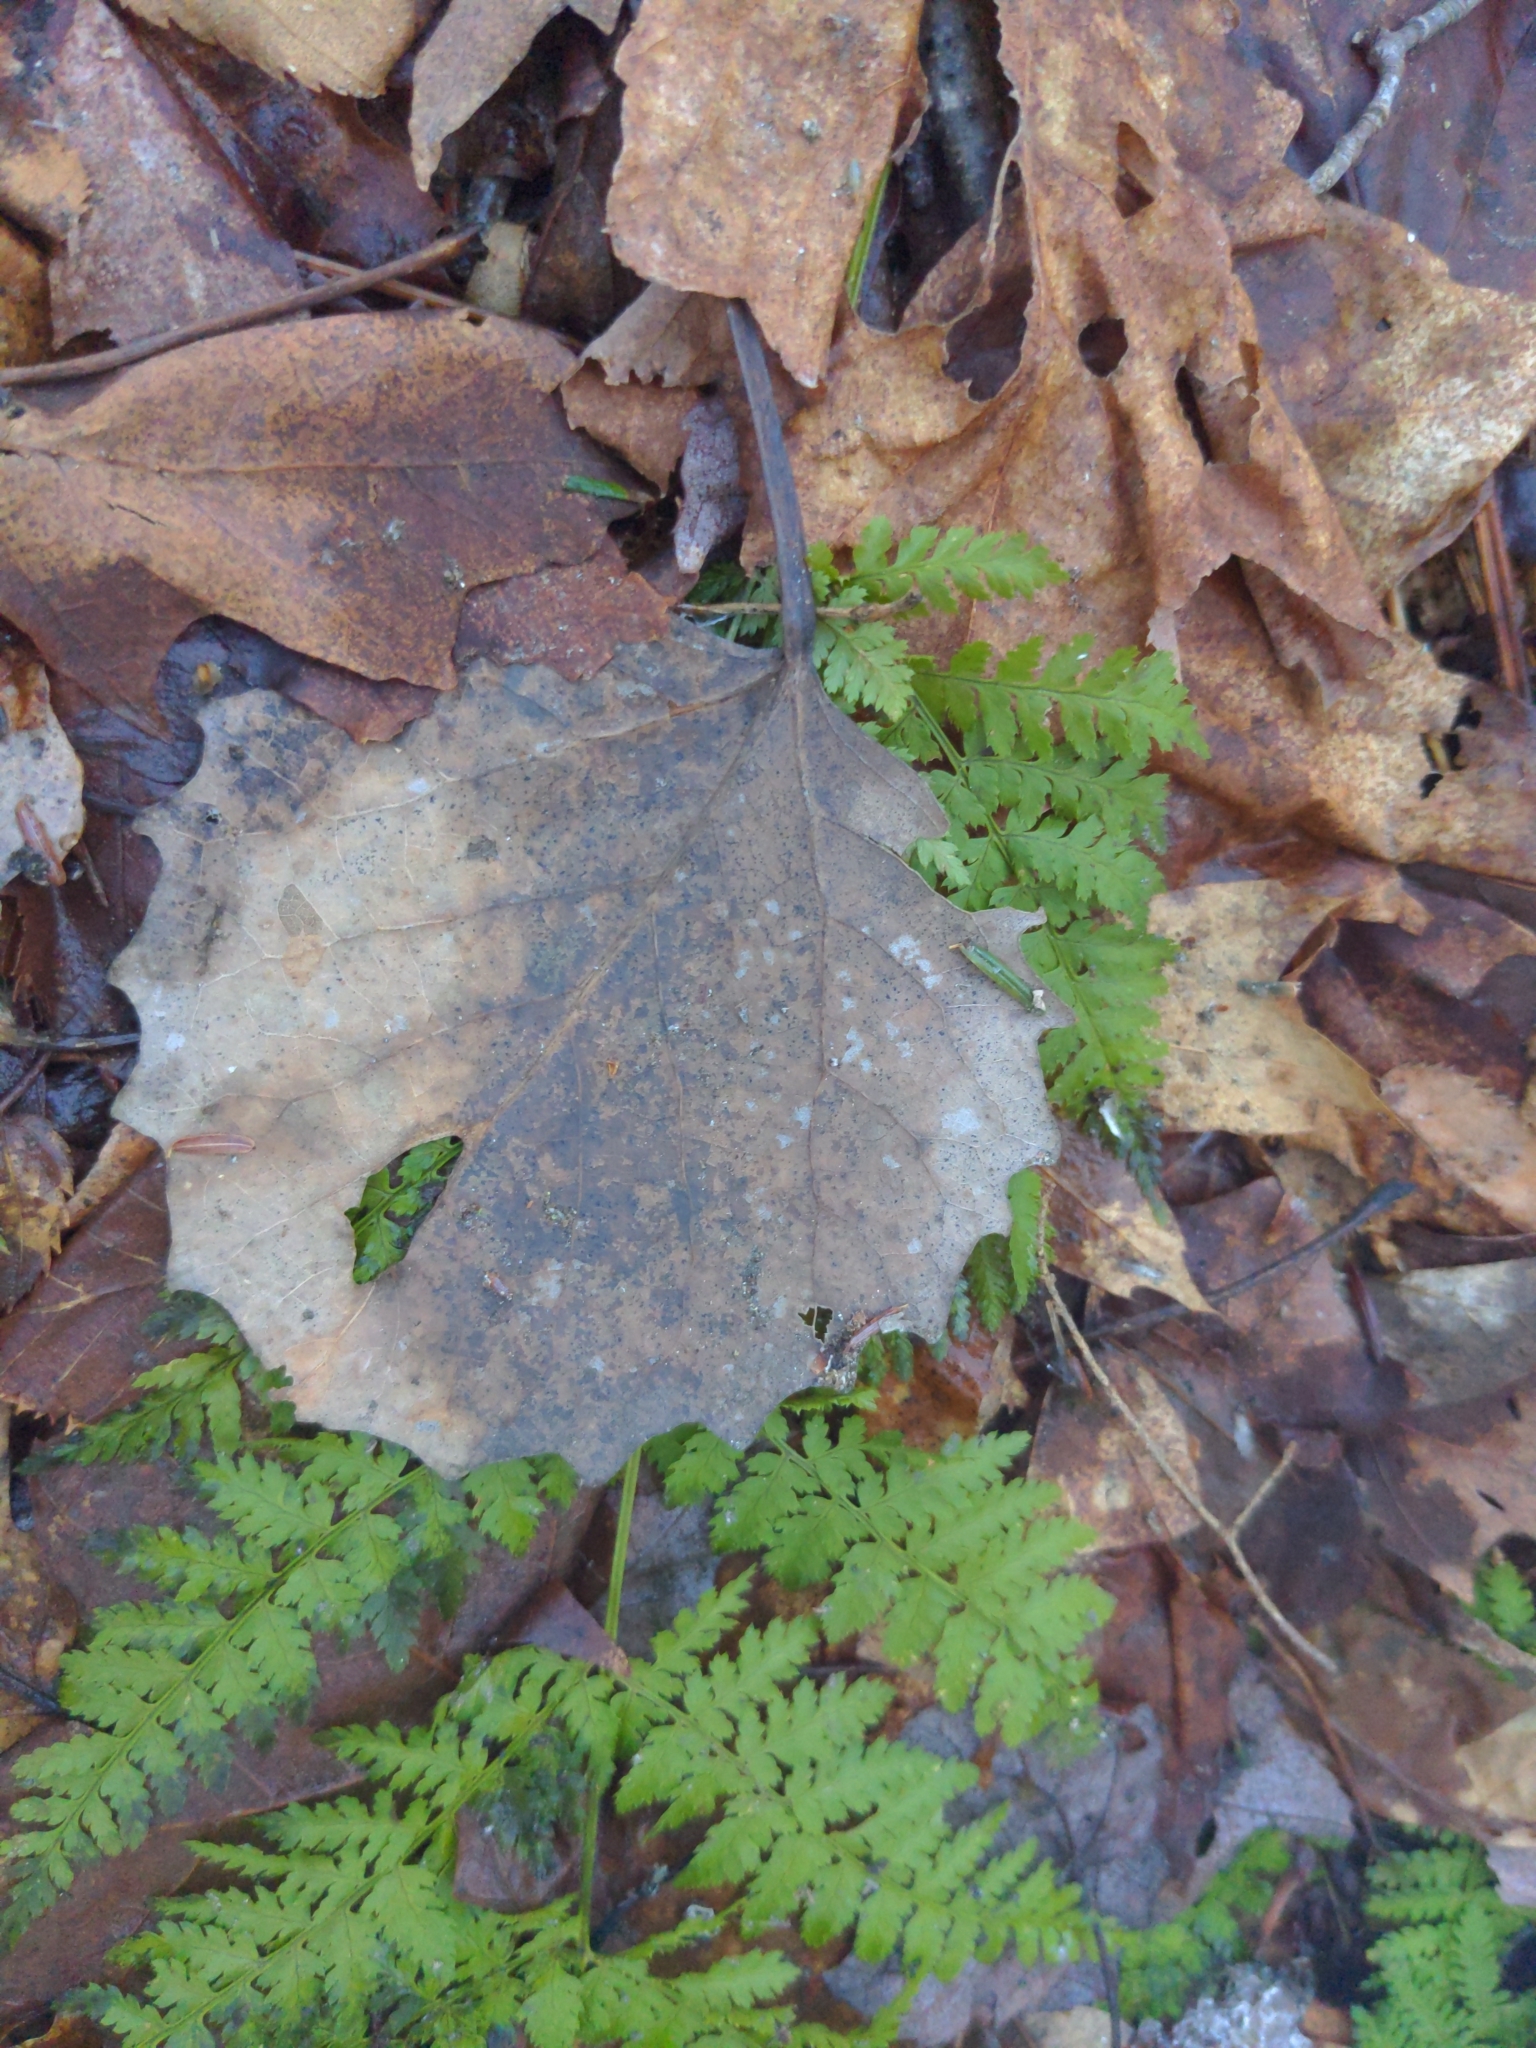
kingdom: Plantae
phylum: Tracheophyta
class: Magnoliopsida
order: Malpighiales
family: Salicaceae
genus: Populus
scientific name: Populus grandidentata
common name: Bigtooth aspen
